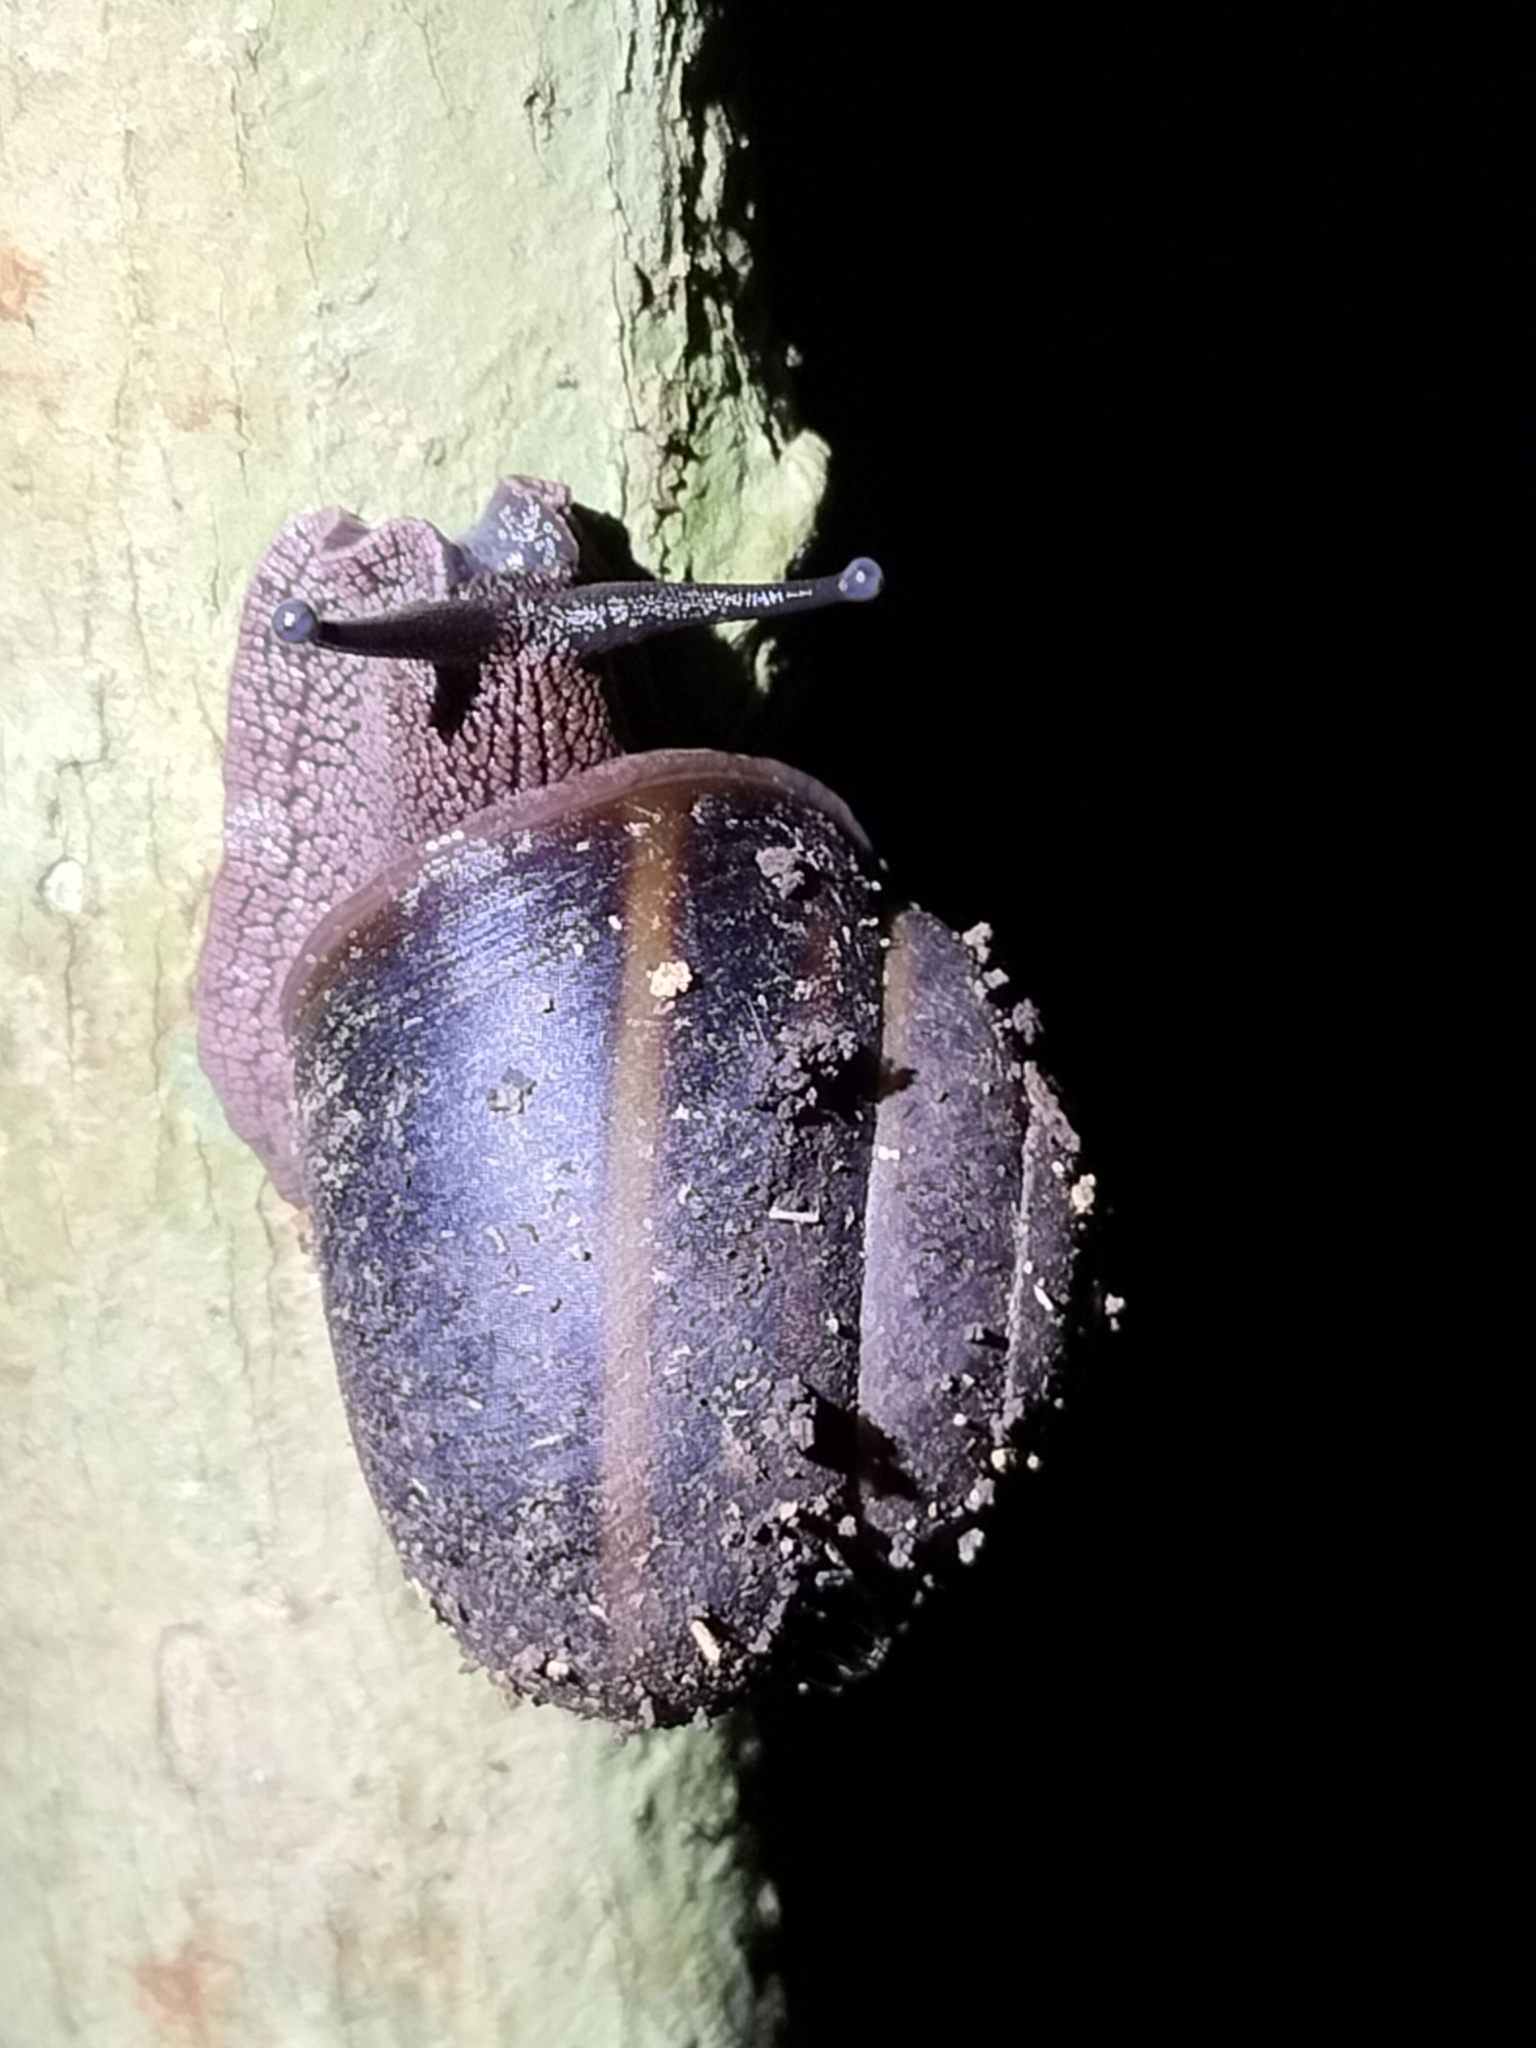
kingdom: Animalia
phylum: Mollusca
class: Gastropoda
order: Stylommatophora
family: Camaenidae
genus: Gnarosophia
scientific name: Gnarosophia bellendenkerensis
